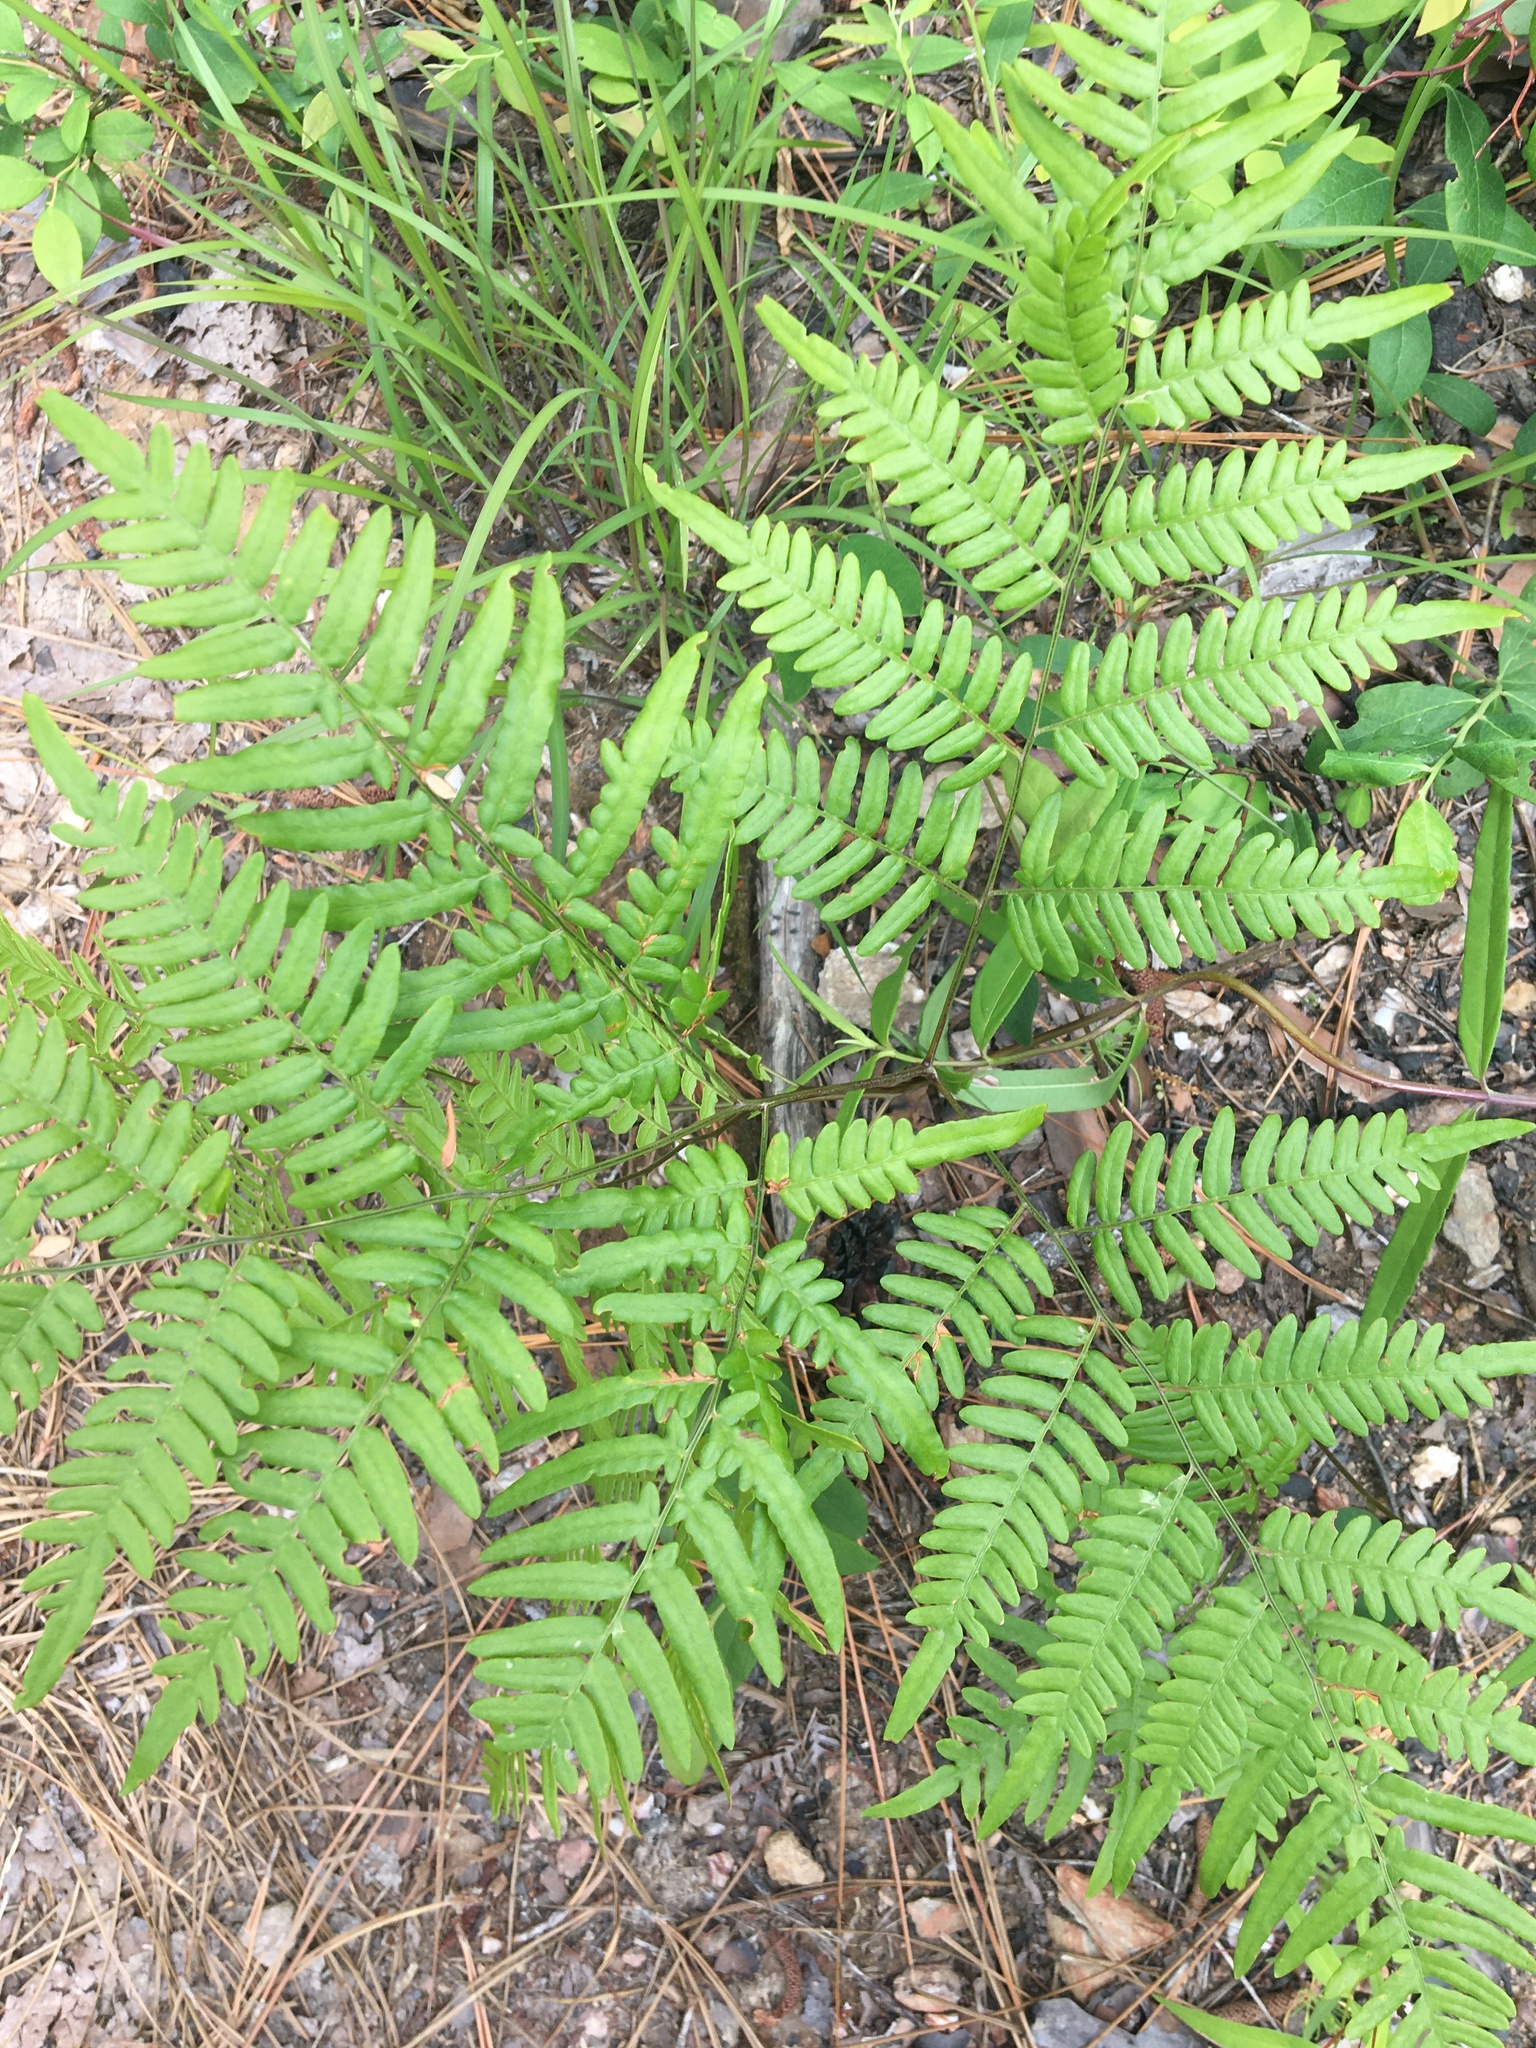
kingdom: Plantae
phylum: Tracheophyta
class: Polypodiopsida
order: Polypodiales
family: Dennstaedtiaceae
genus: Pteridium
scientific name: Pteridium
